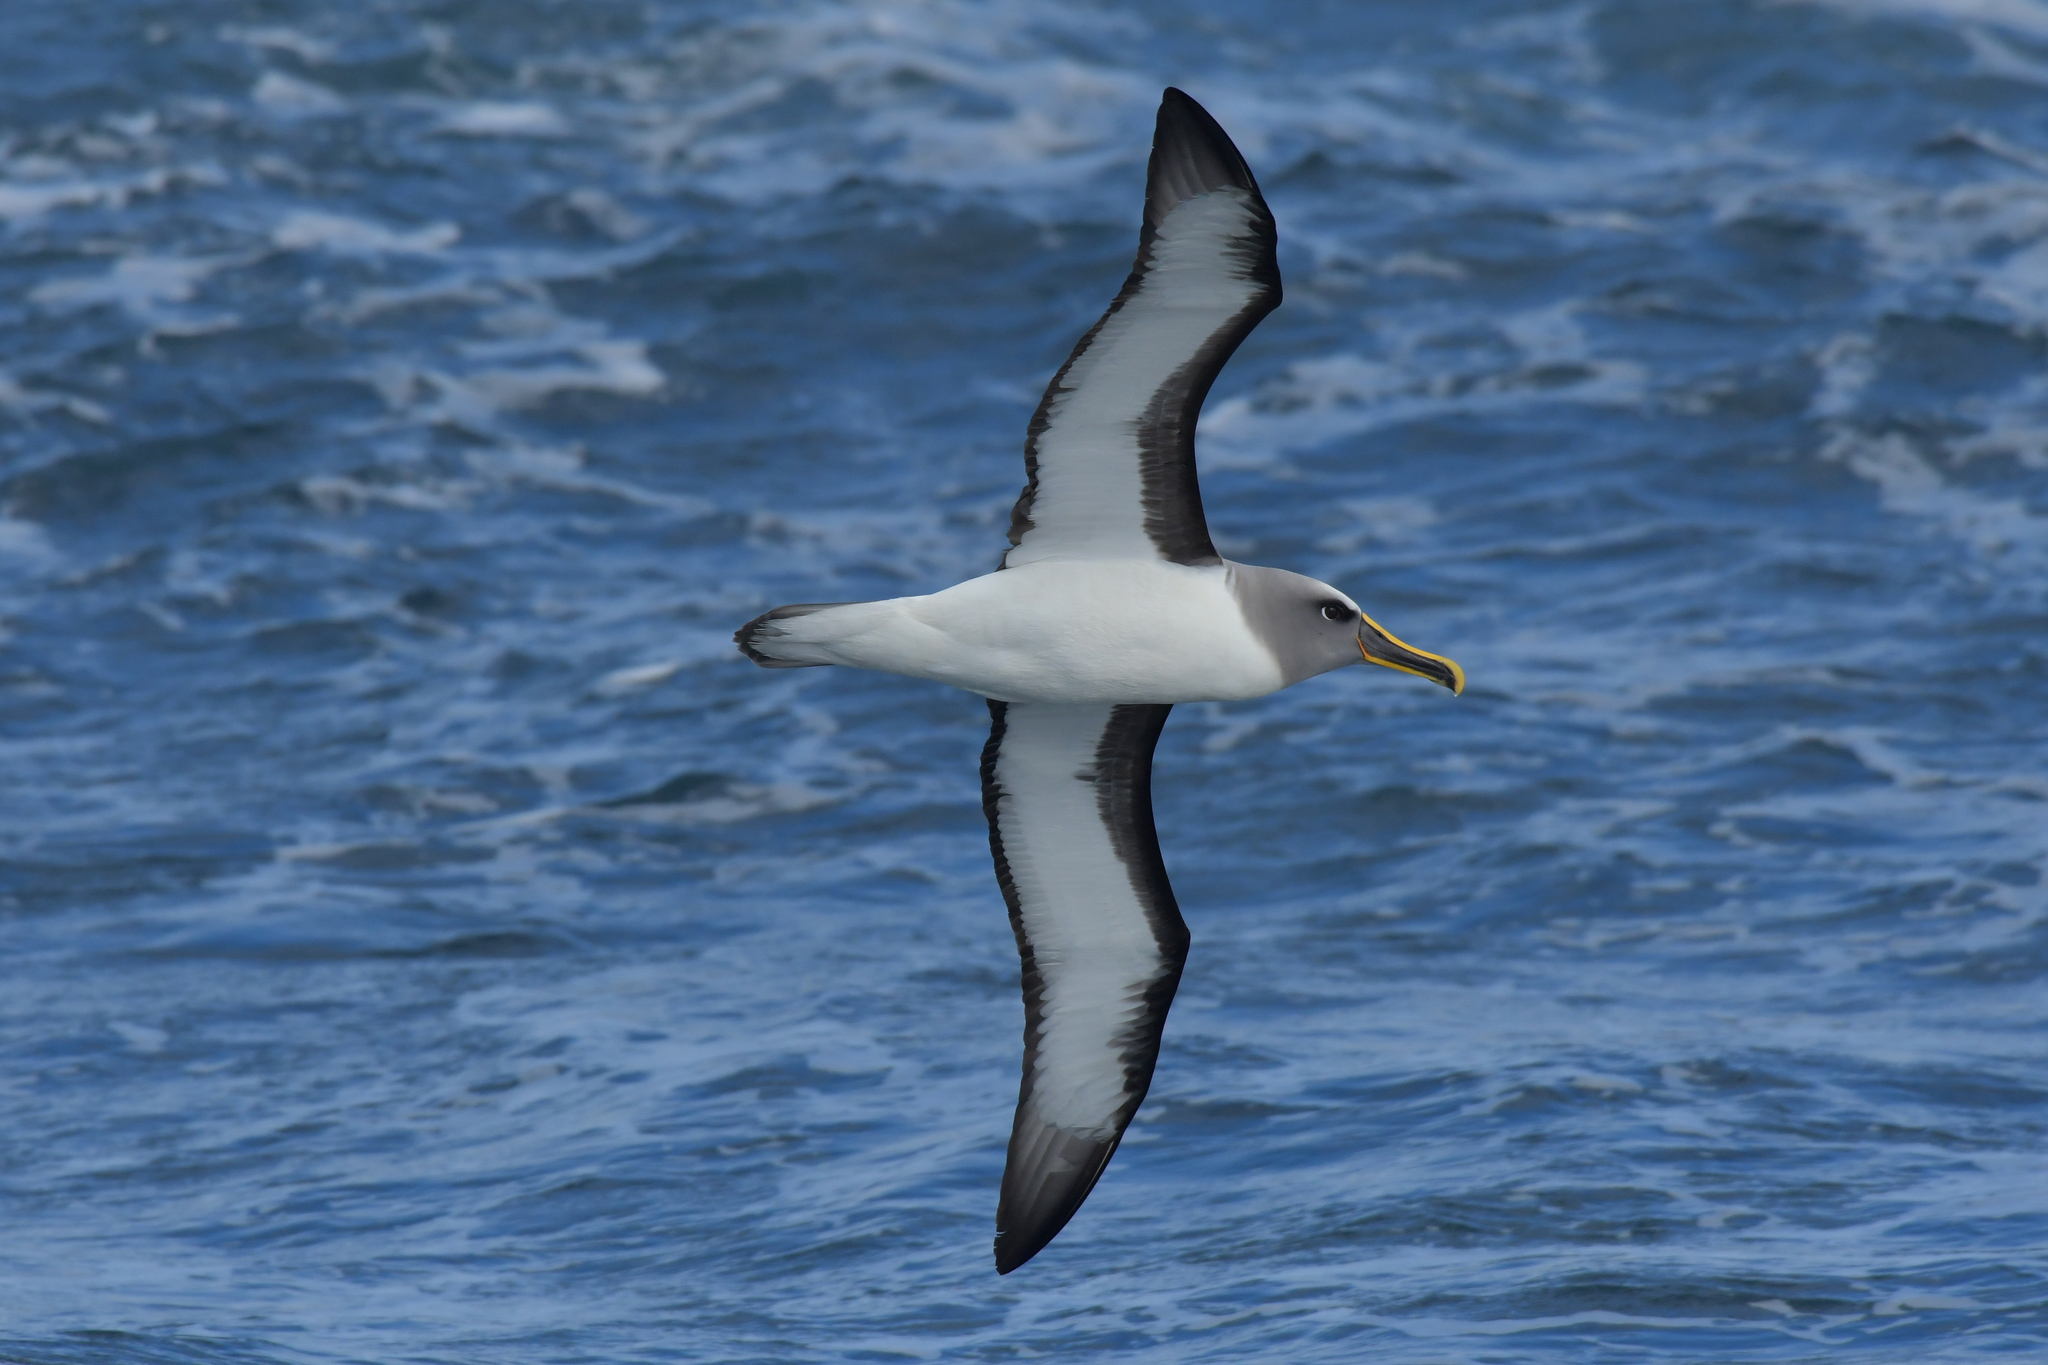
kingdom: Animalia
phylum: Chordata
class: Aves
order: Procellariiformes
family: Diomedeidae
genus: Thalassarche
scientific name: Thalassarche bulleri
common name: Buller's albatross
